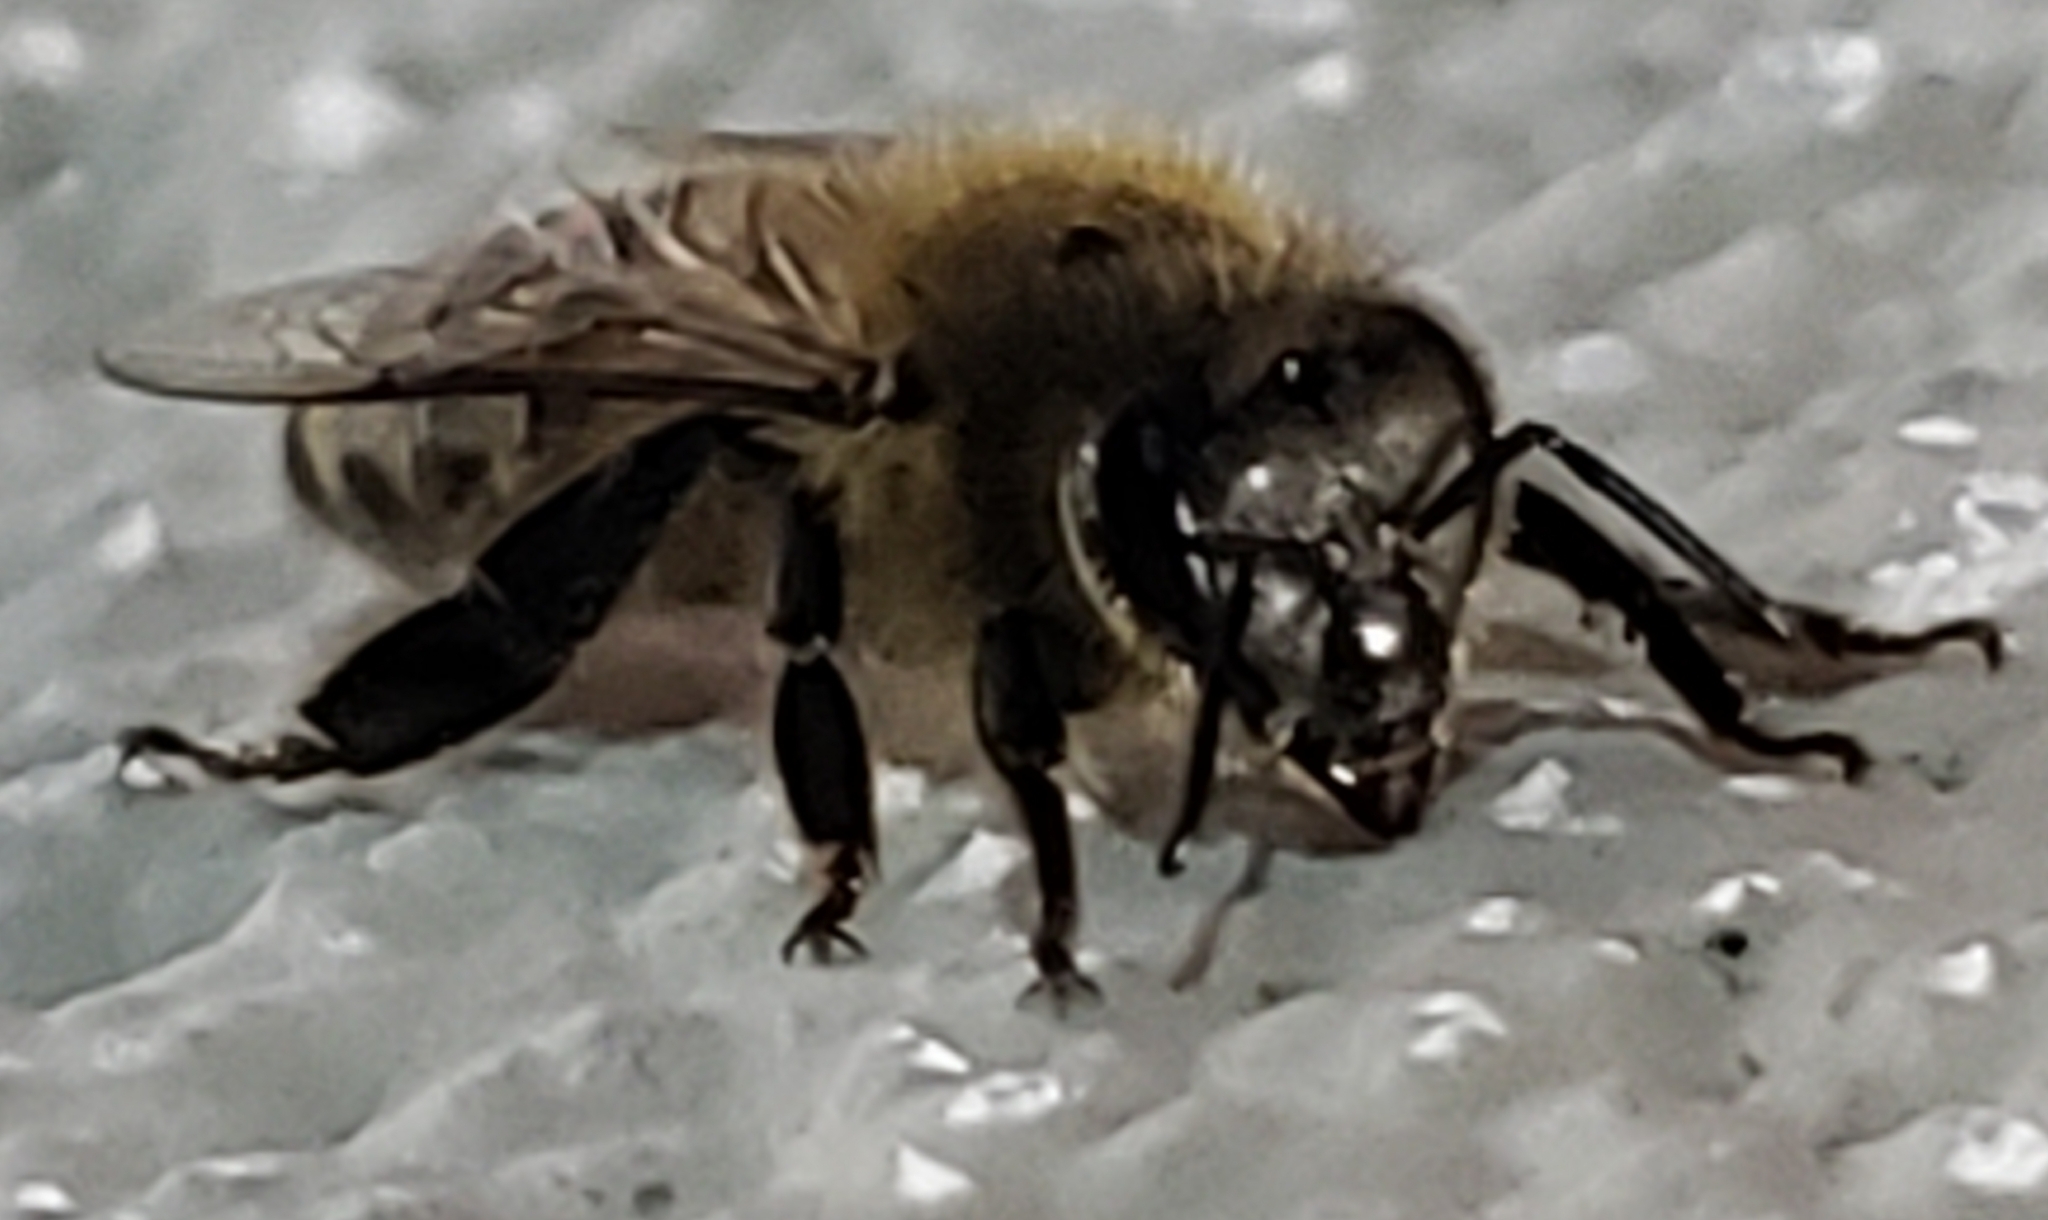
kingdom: Animalia
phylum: Arthropoda
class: Insecta
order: Hymenoptera
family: Apidae
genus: Apis
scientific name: Apis mellifera
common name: Honey bee
